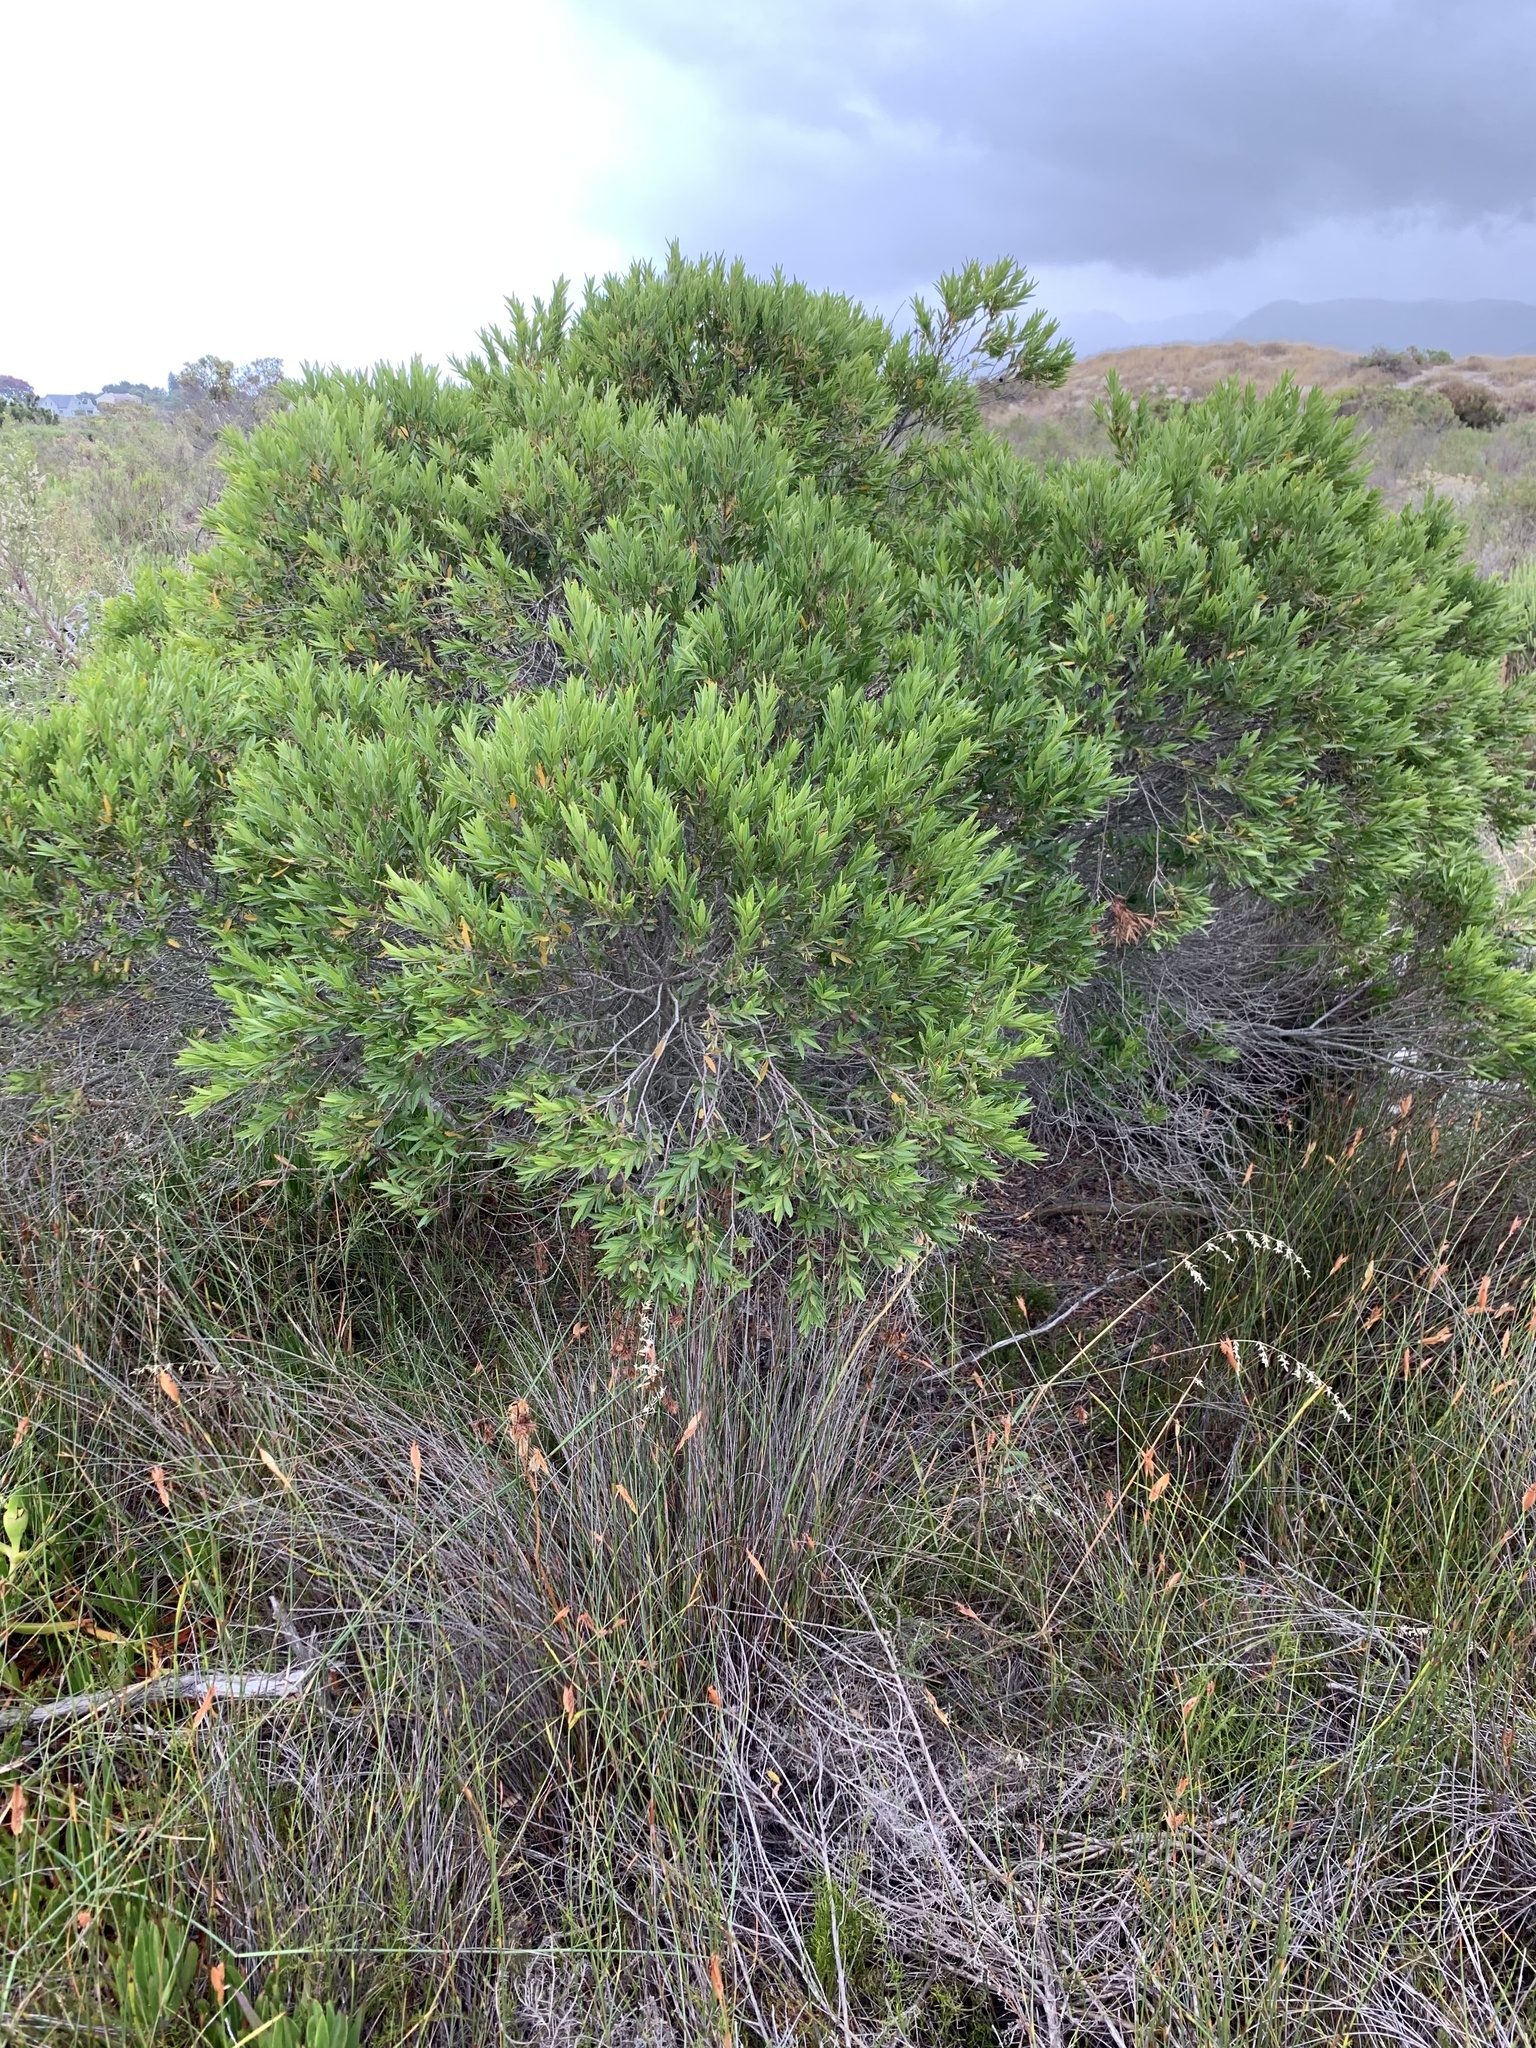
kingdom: Plantae
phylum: Tracheophyta
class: Magnoliopsida
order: Ericales
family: Ebenaceae
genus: Diospyros
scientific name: Diospyros glabra
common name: Fynbos star apple
